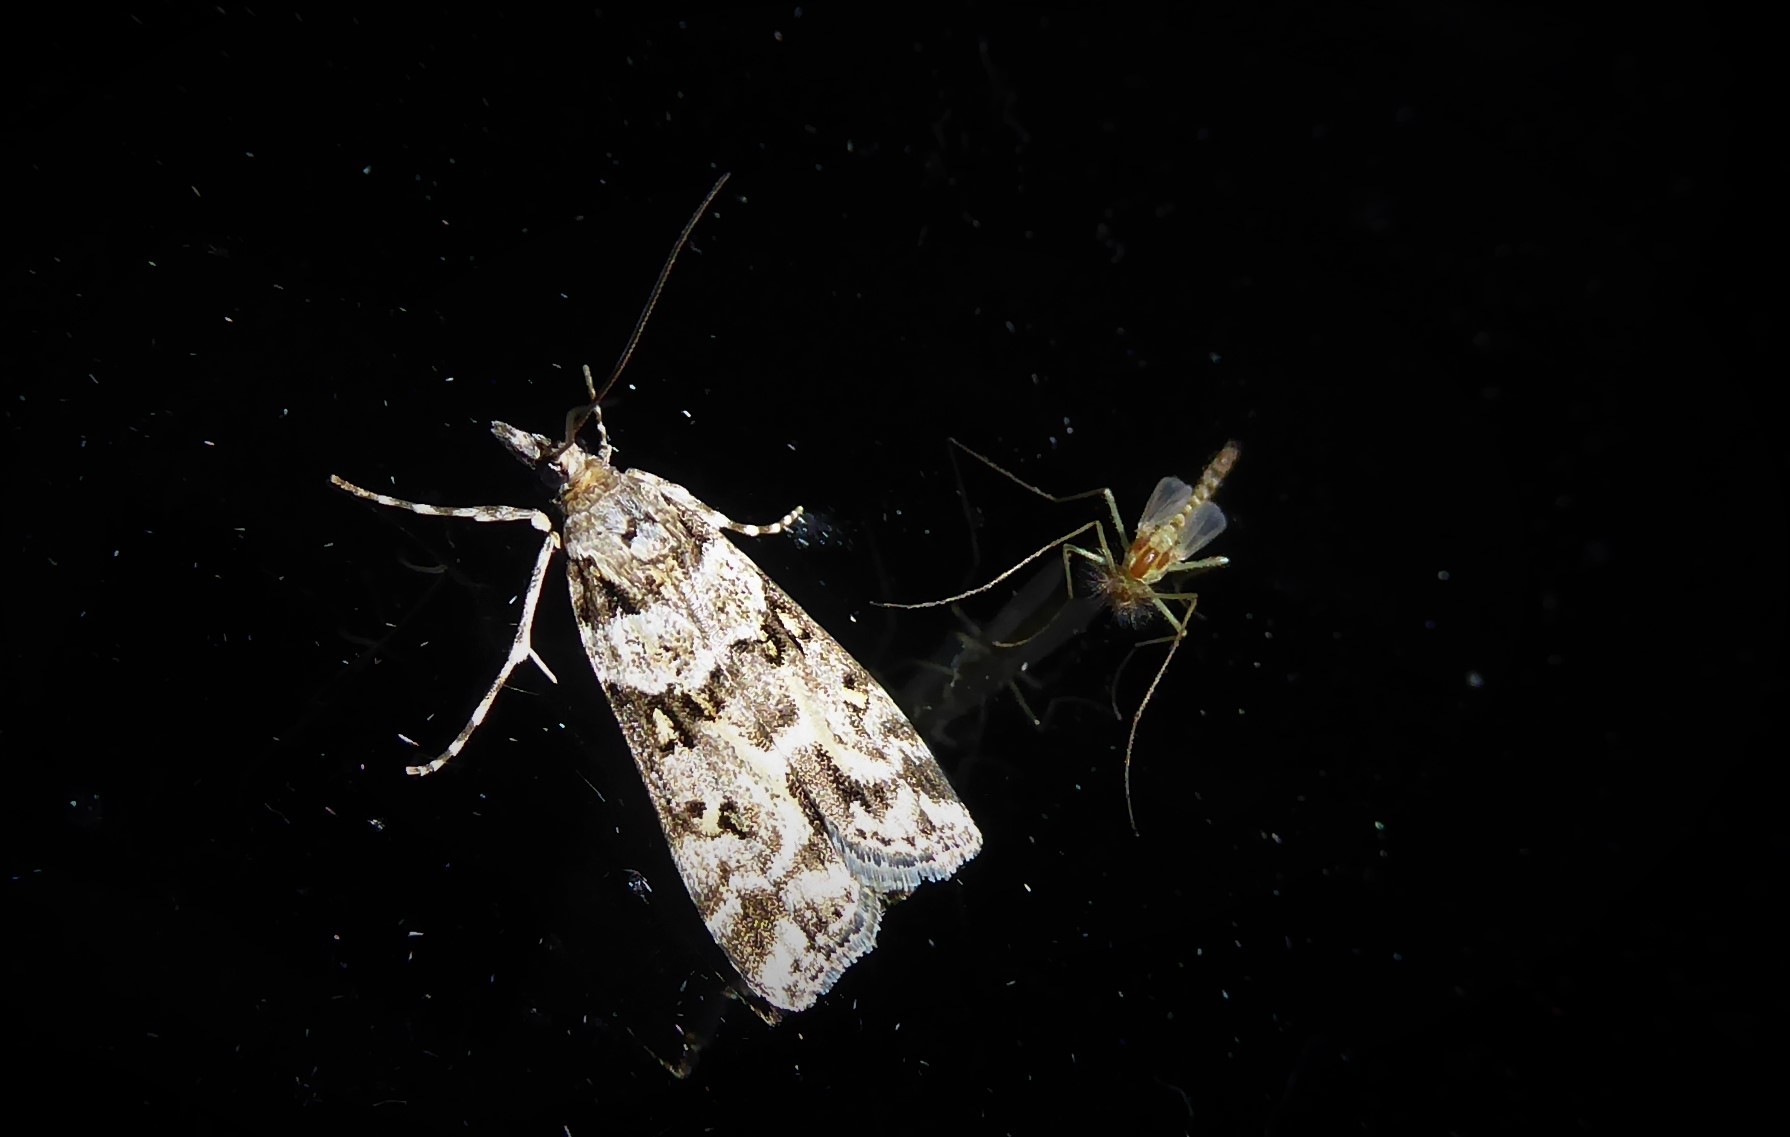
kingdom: Animalia
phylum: Arthropoda
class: Insecta
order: Lepidoptera
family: Crambidae
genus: Eudonia
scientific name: Eudonia diphtheralis
